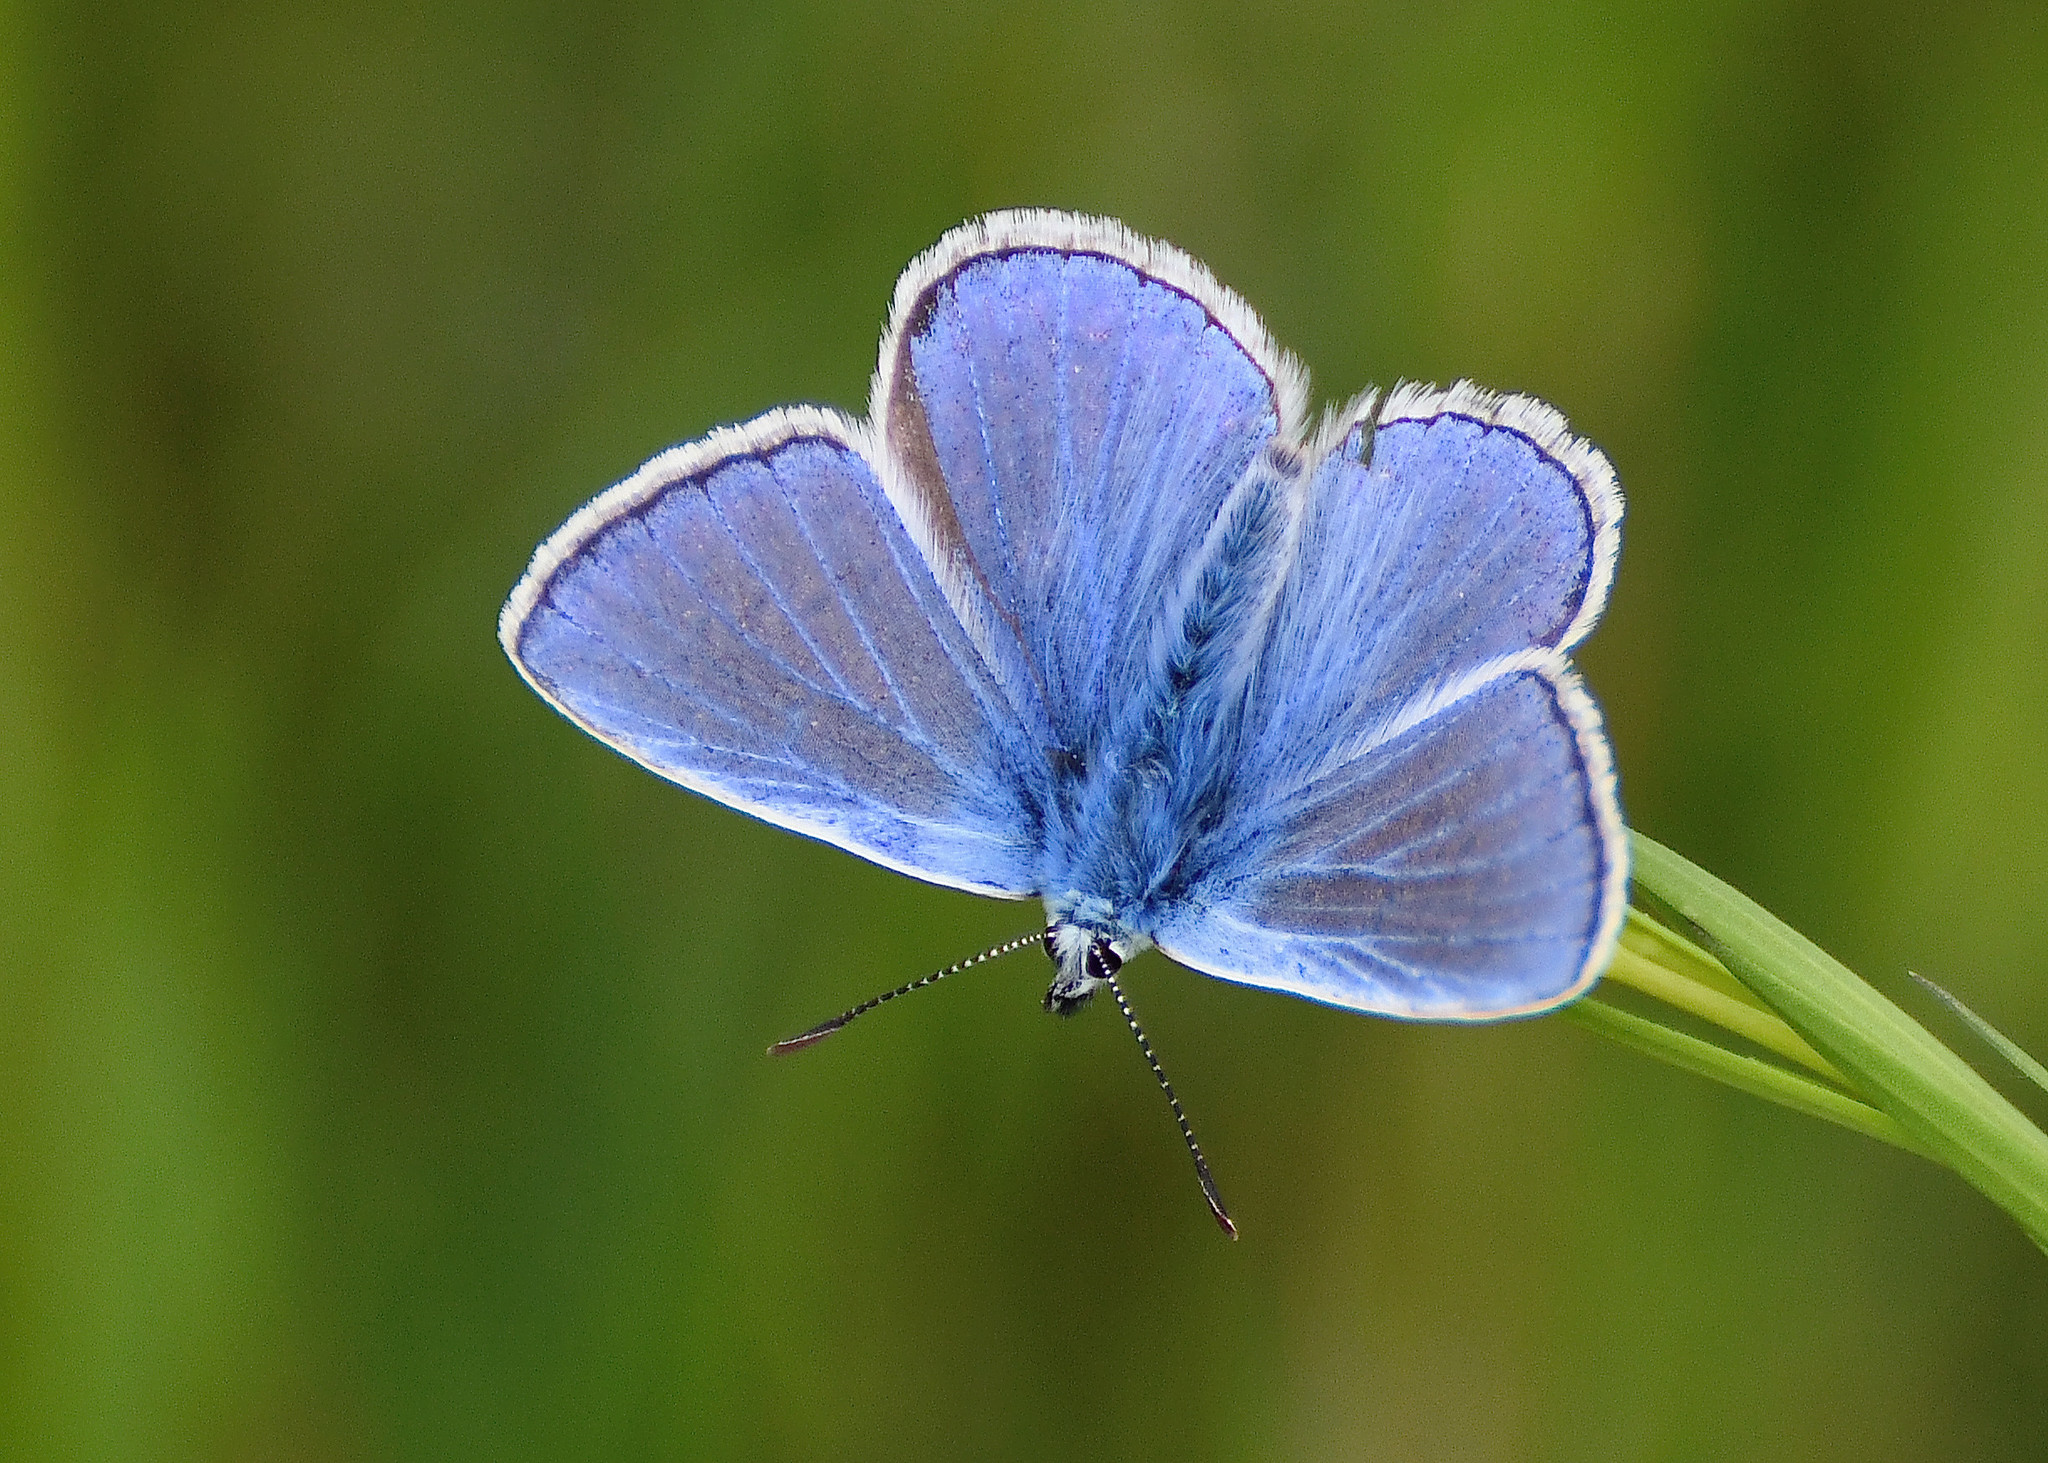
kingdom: Animalia
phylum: Arthropoda
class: Insecta
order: Lepidoptera
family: Lycaenidae
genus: Polyommatus
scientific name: Polyommatus icarus
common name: Common blue
